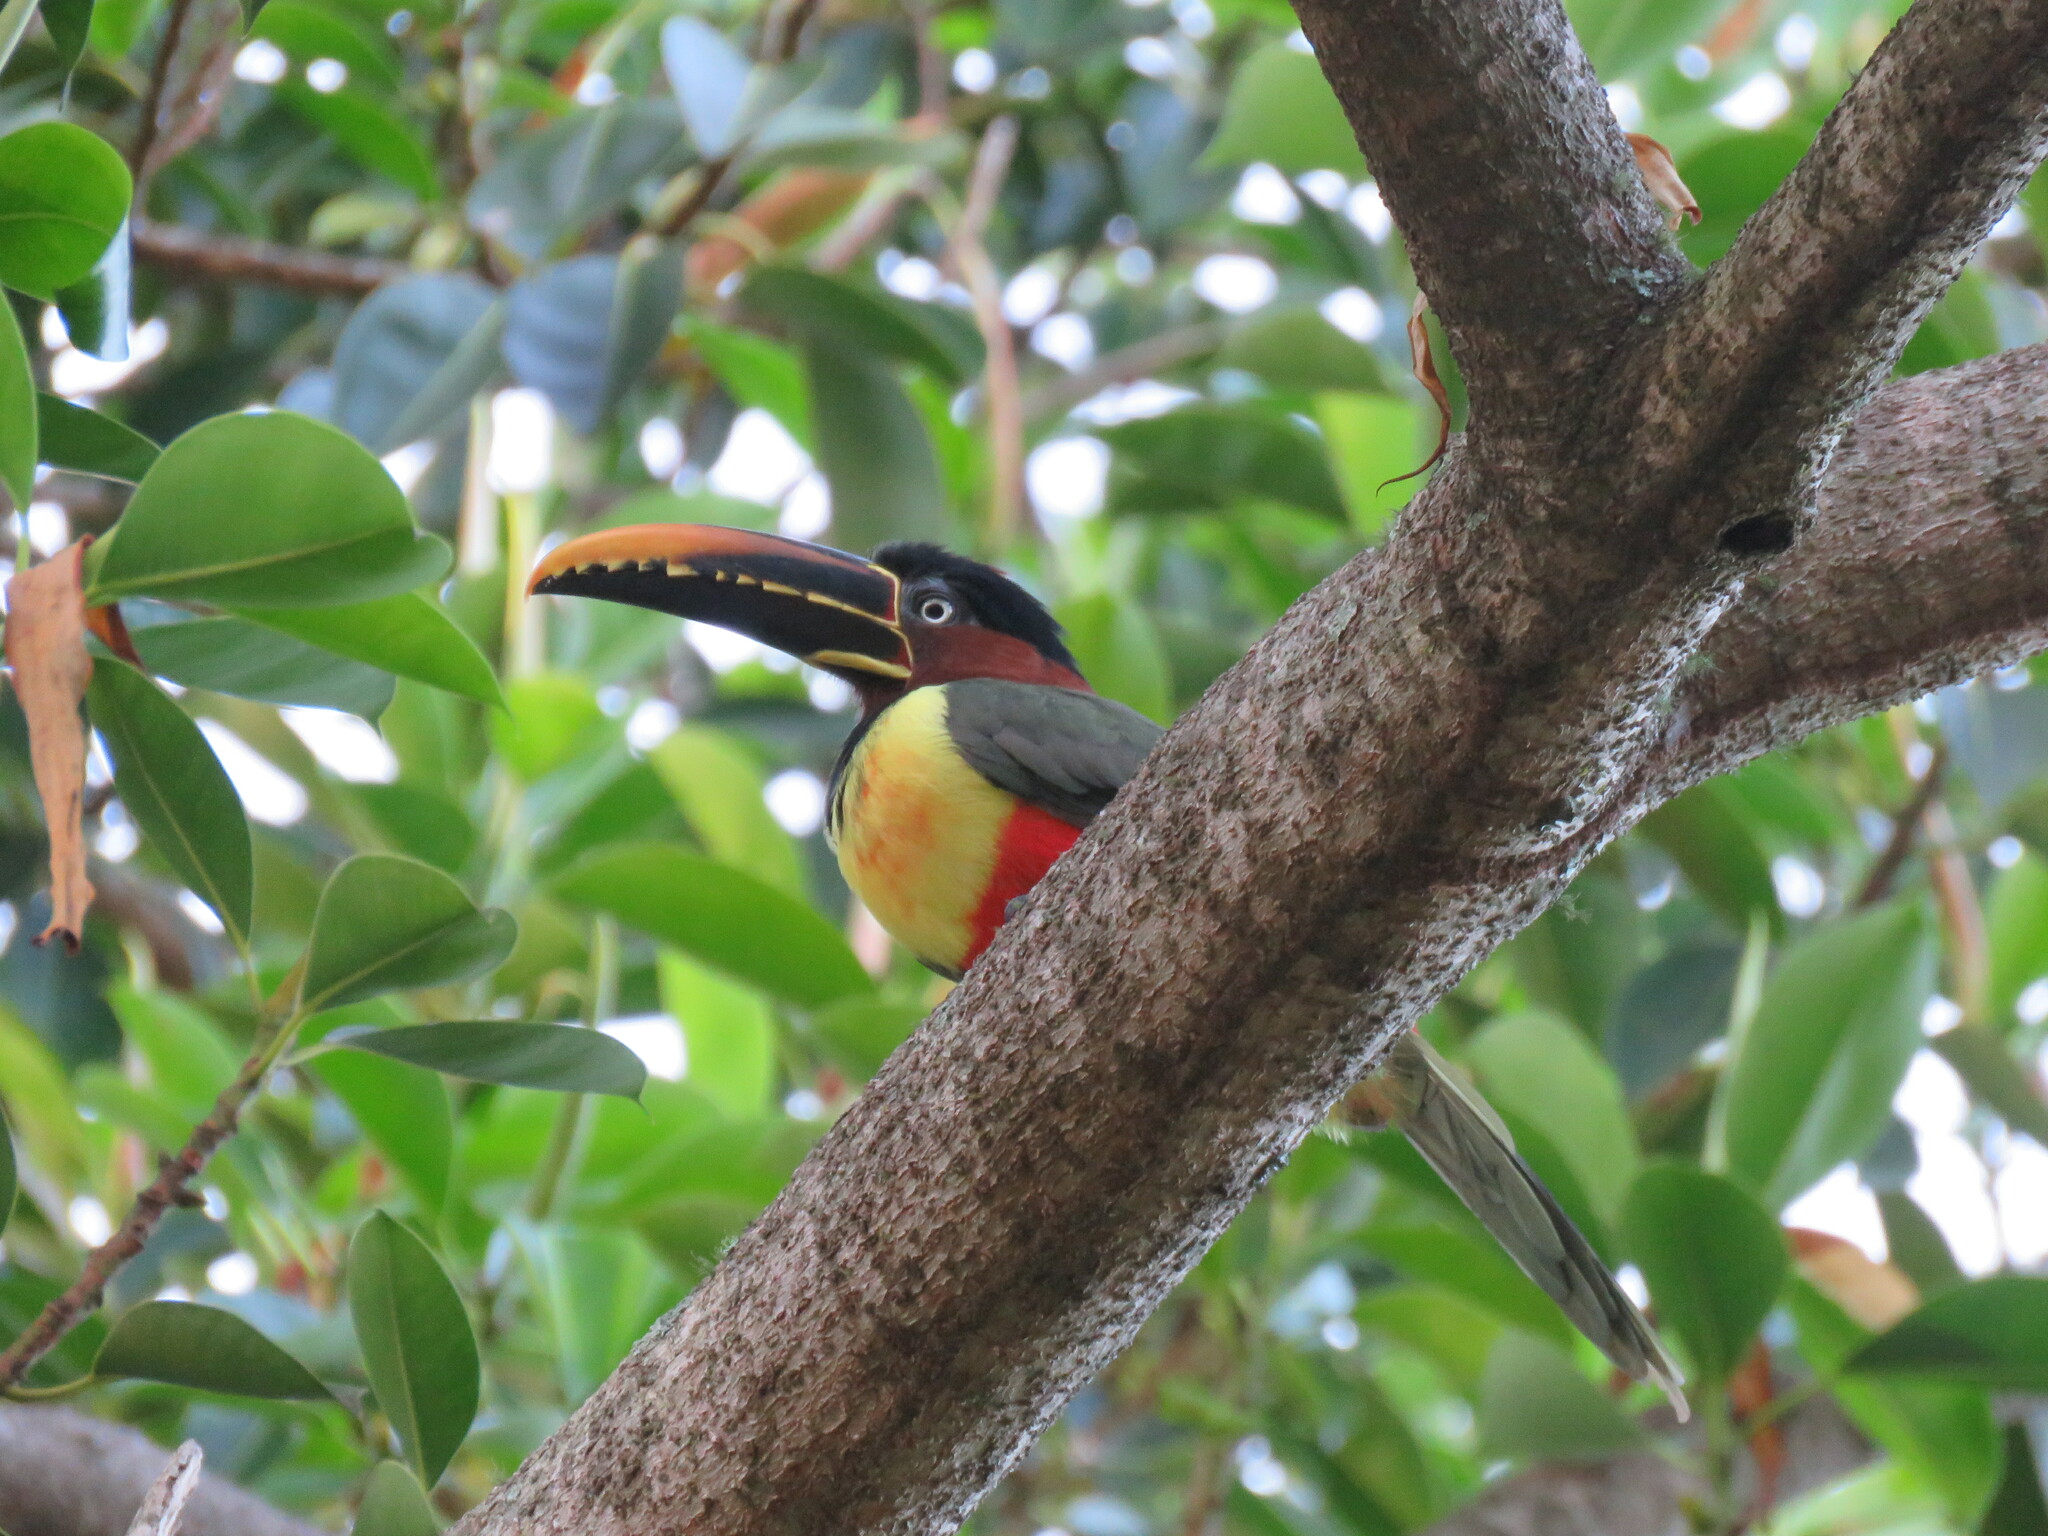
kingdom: Animalia
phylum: Chordata
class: Aves
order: Piciformes
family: Ramphastidae
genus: Pteroglossus
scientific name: Pteroglossus castanotis
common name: Chestnut-eared aracari
